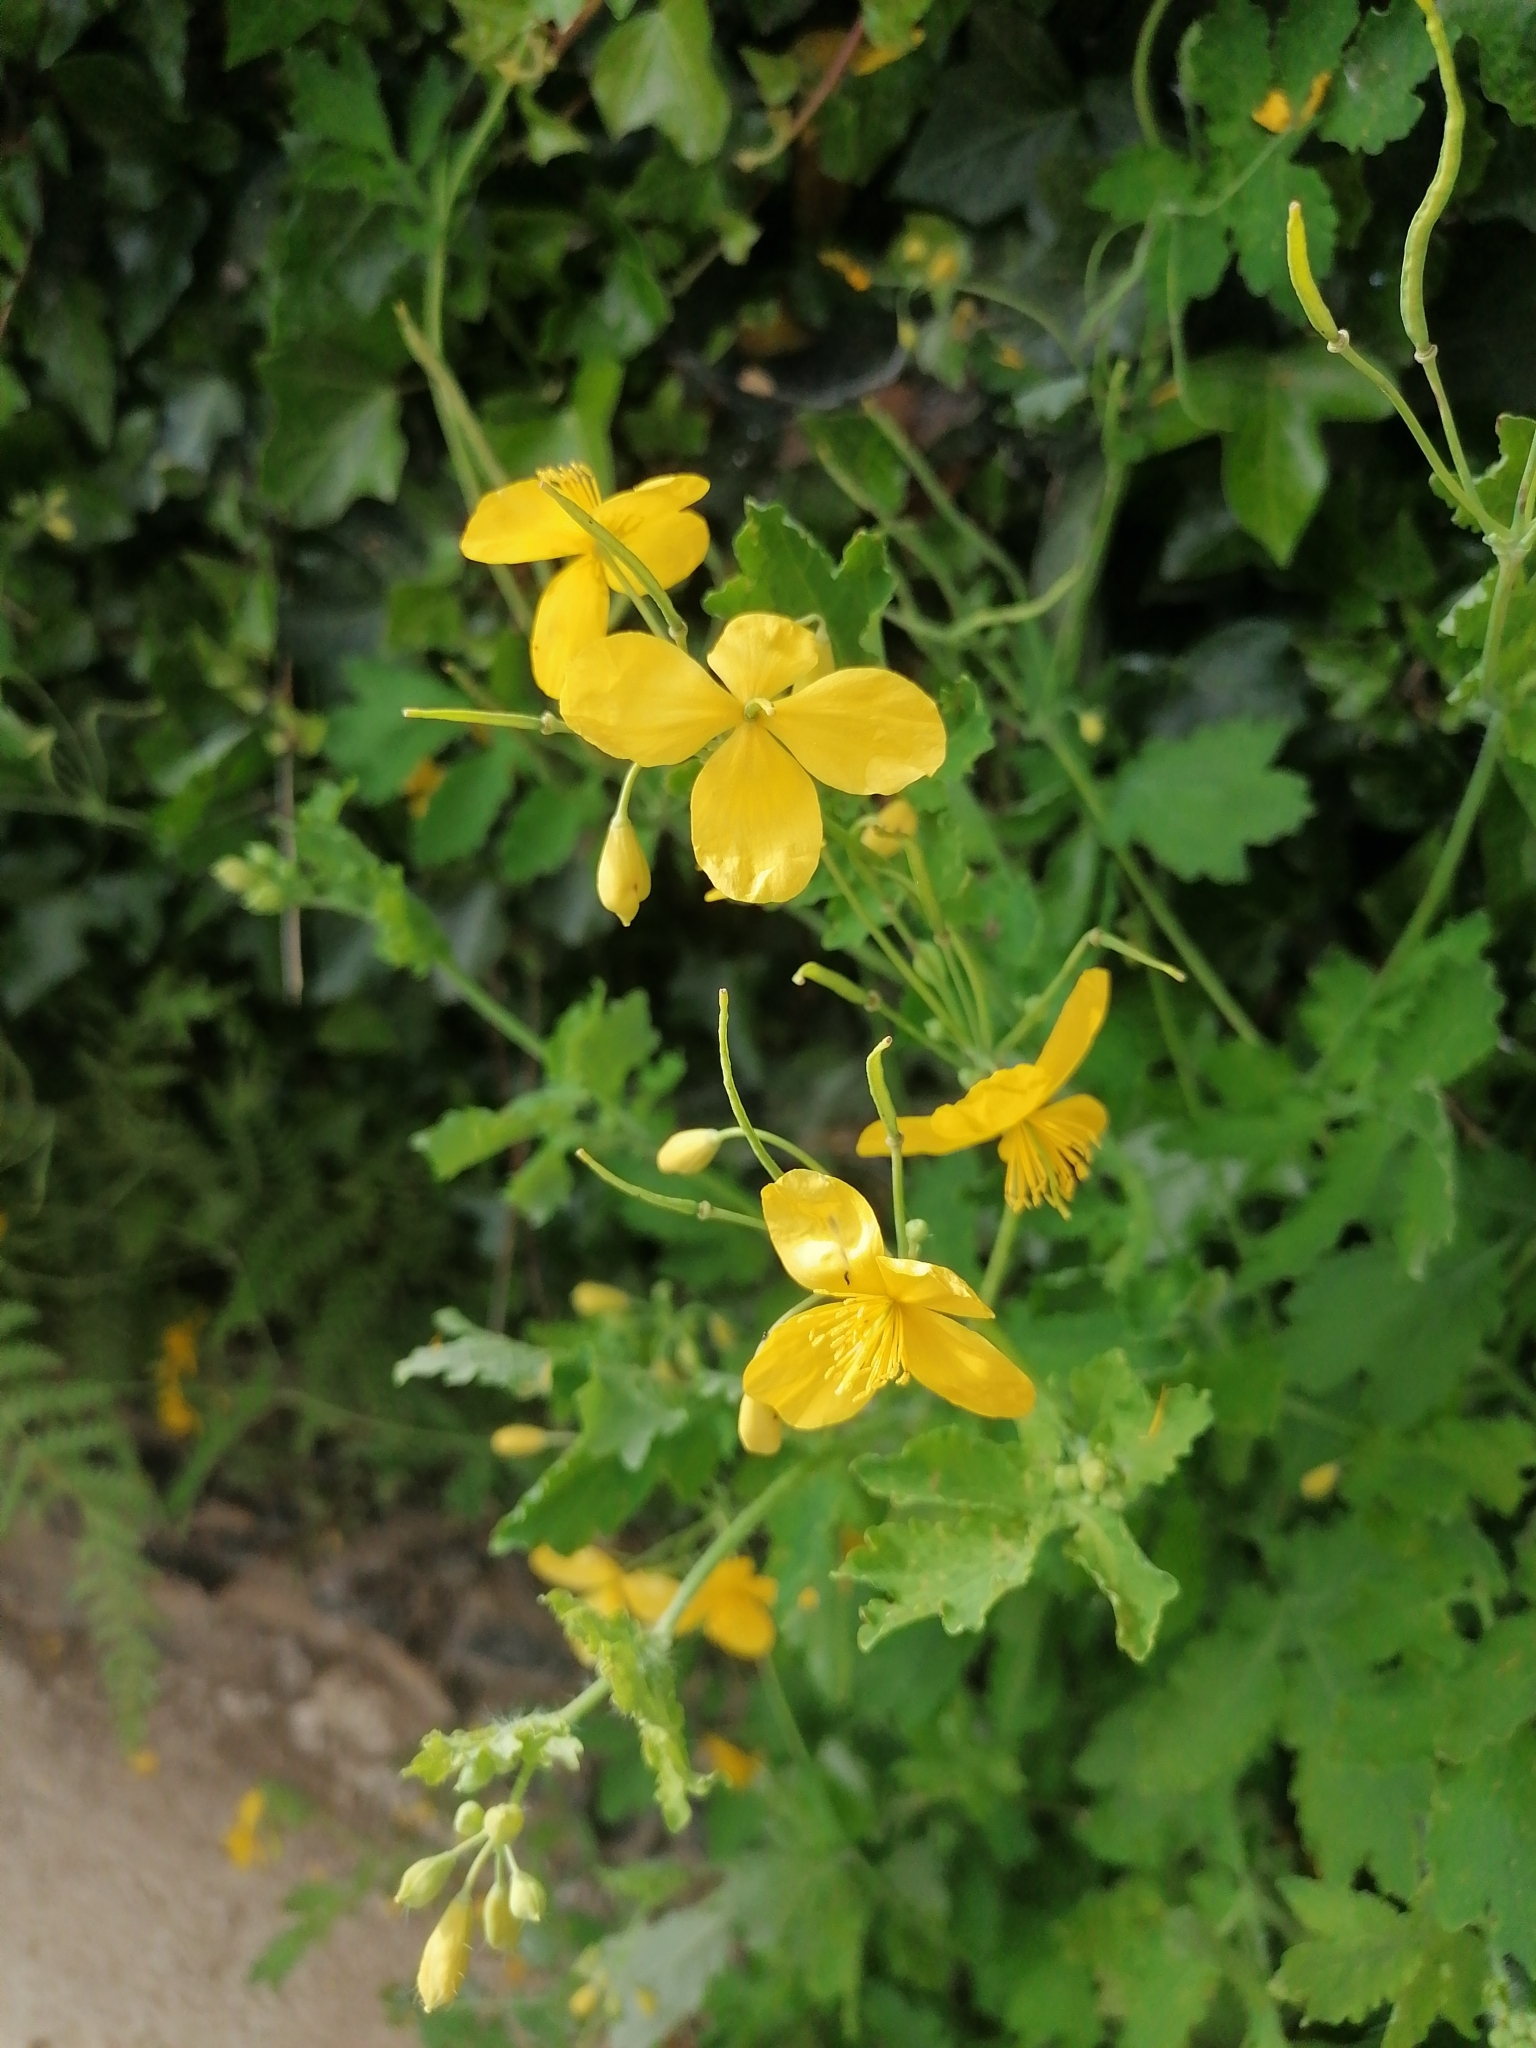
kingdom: Plantae
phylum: Tracheophyta
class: Magnoliopsida
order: Ranunculales
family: Papaveraceae
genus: Chelidonium
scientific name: Chelidonium majus
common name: Greater celandine
